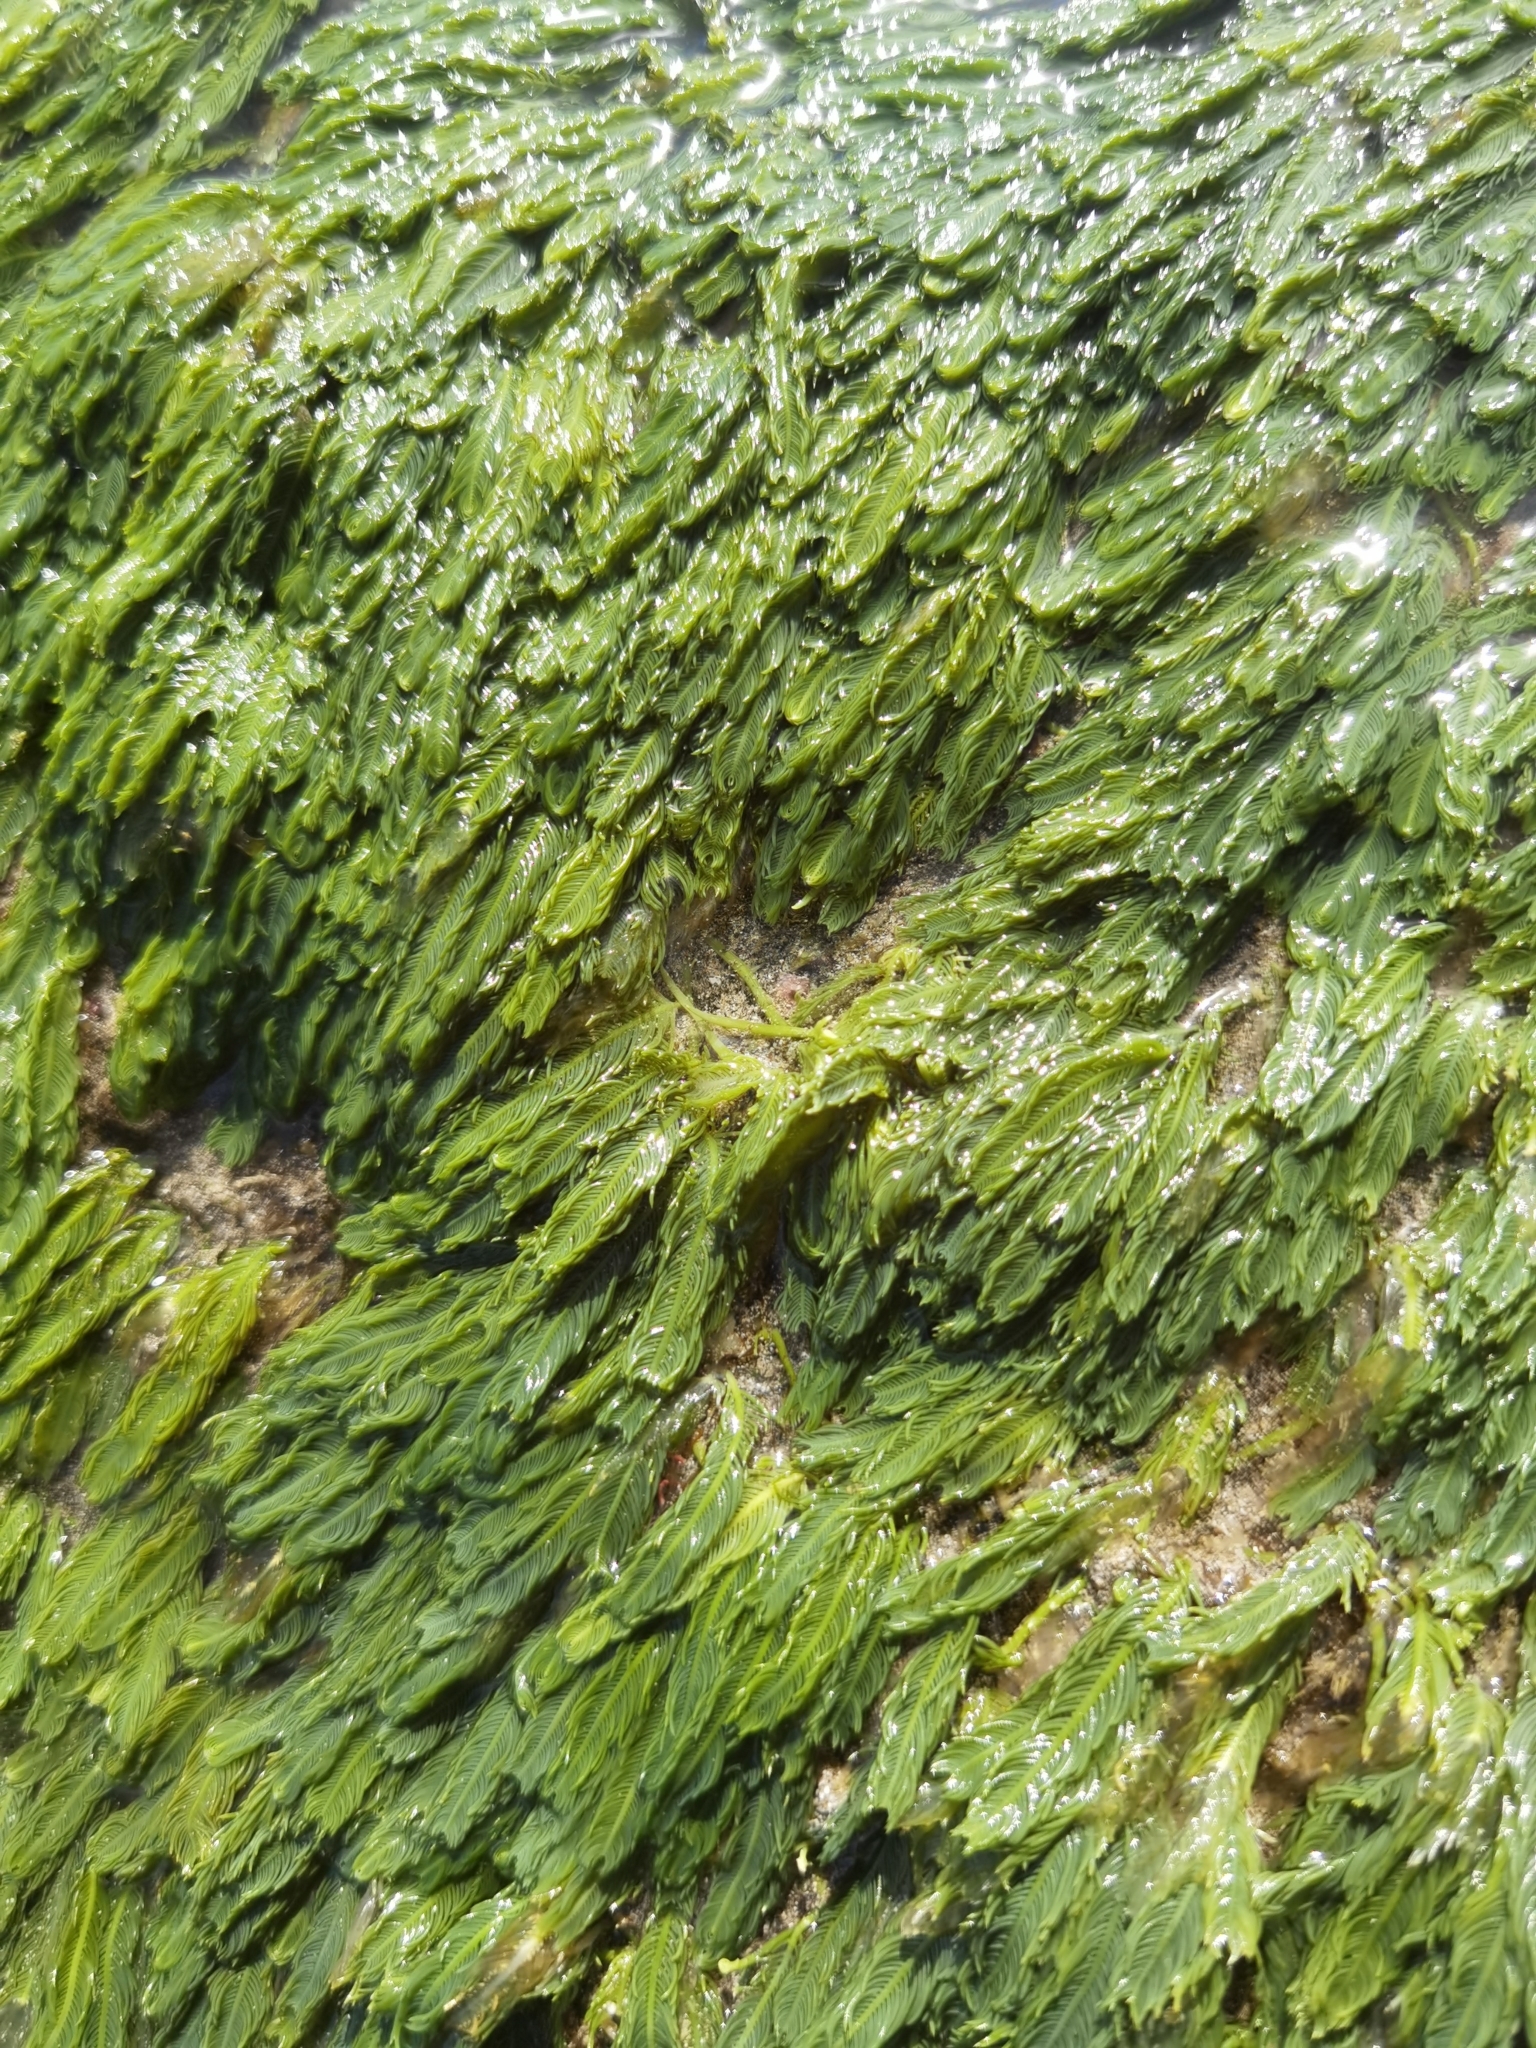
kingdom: Plantae
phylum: Chlorophyta
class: Ulvophyceae
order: Bryopsidales
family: Caulerpaceae
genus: Caulerpa
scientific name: Caulerpa sertularioides
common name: Green feather algae
